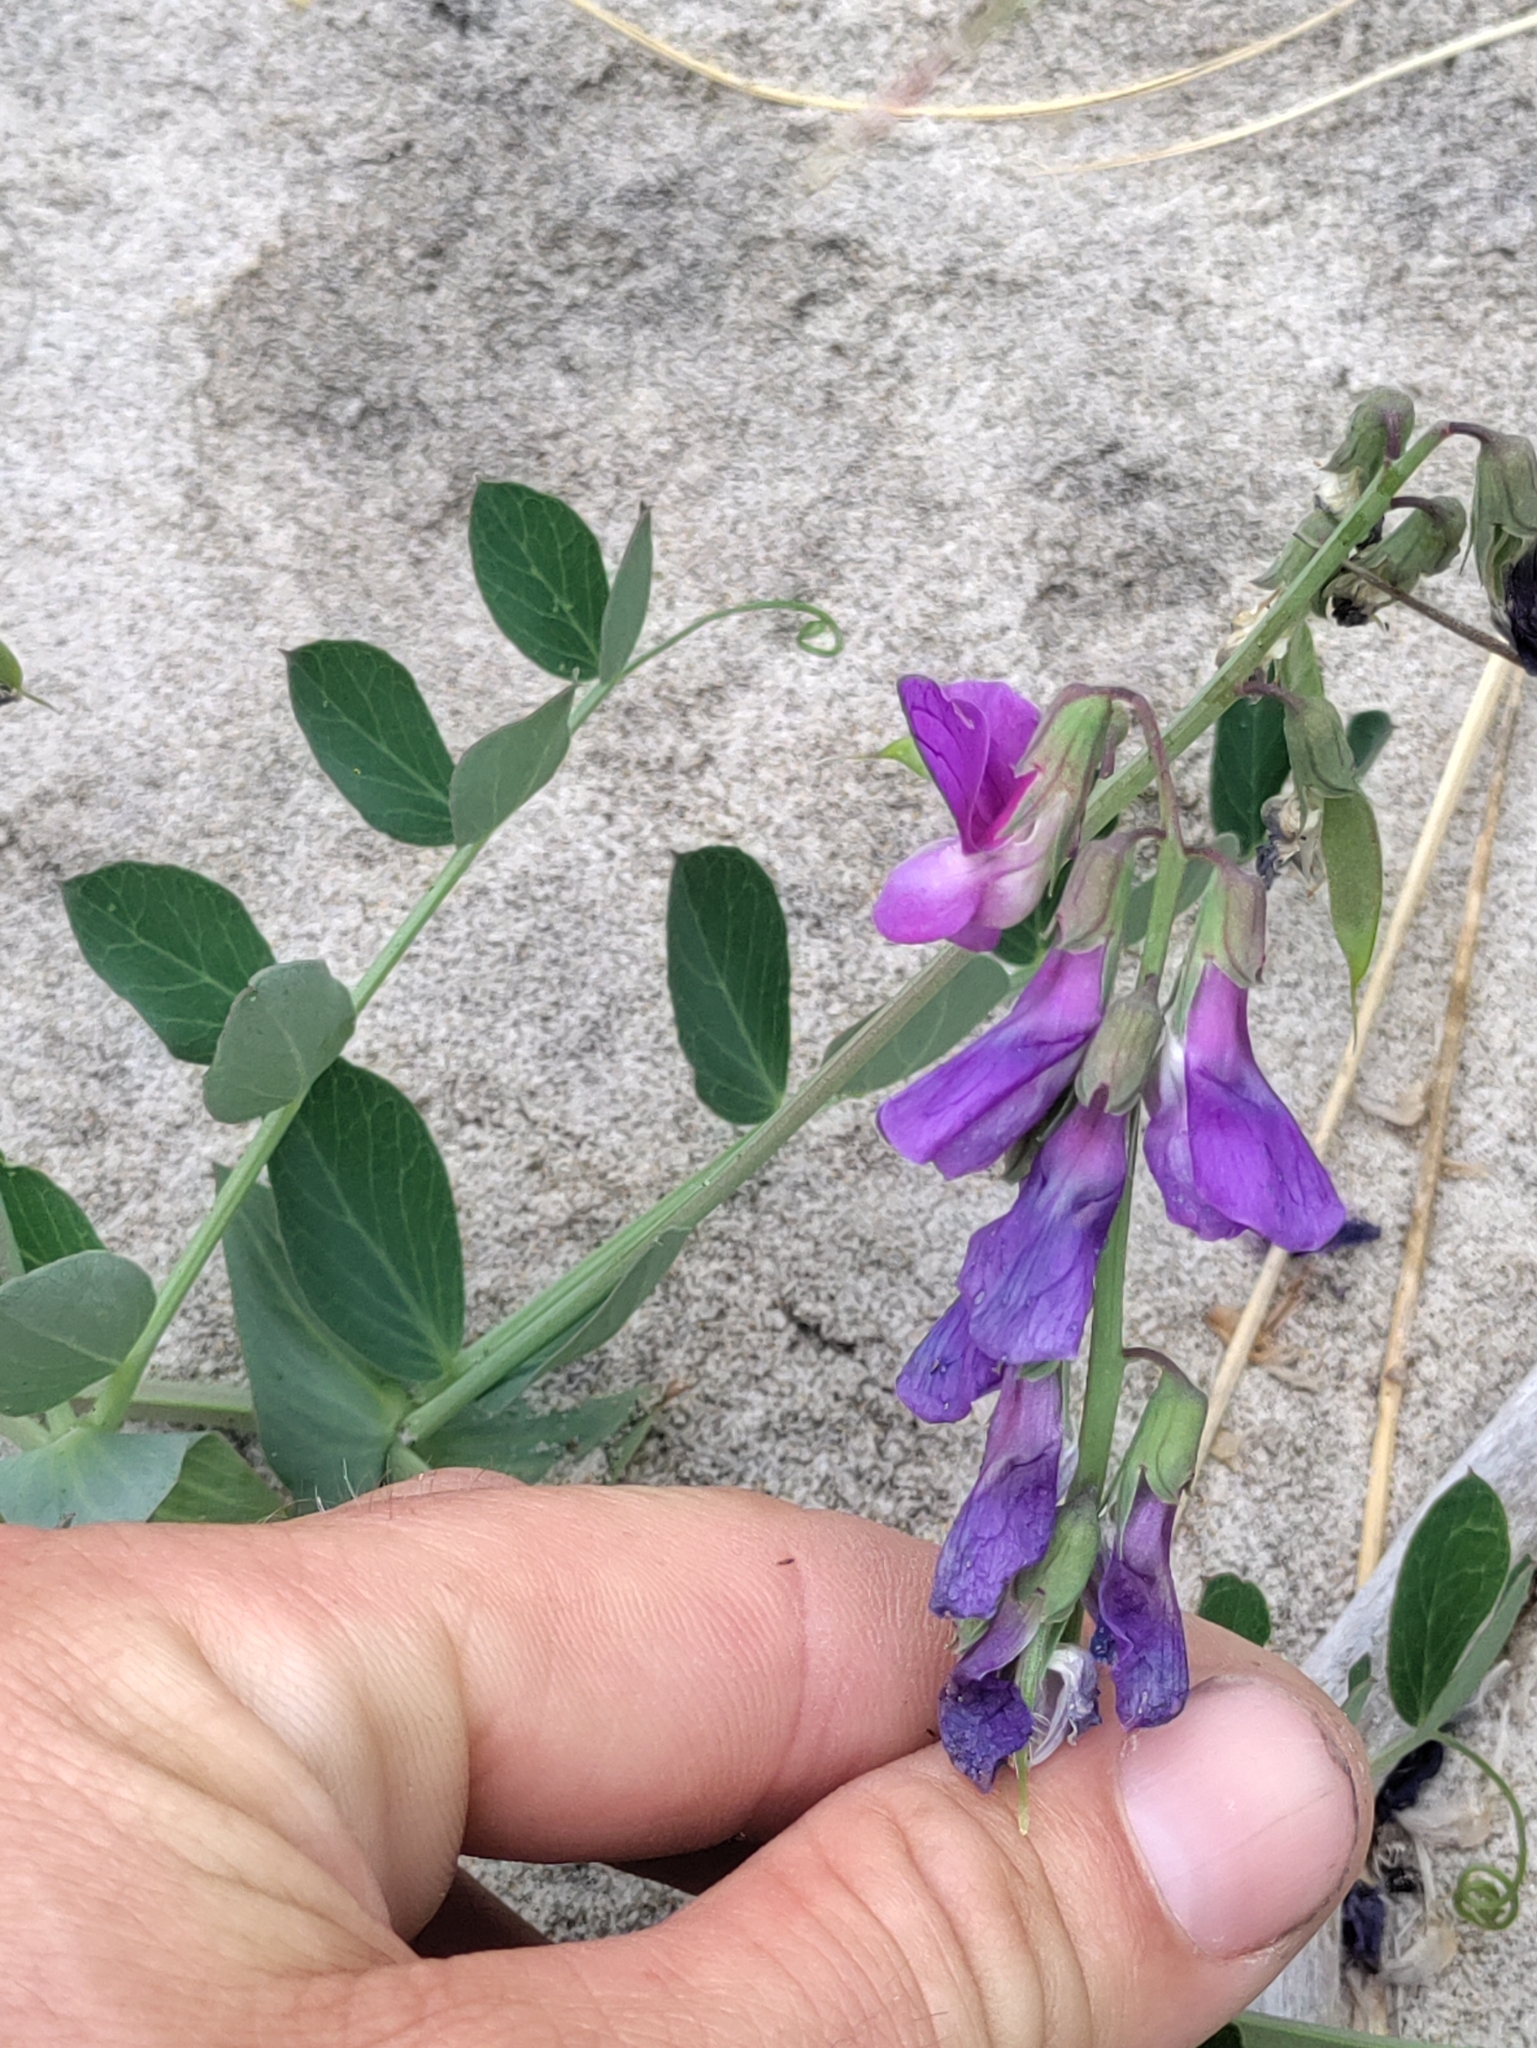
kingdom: Plantae
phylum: Tracheophyta
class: Magnoliopsida
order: Fabales
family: Fabaceae
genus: Lathyrus
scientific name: Lathyrus japonicus
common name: Sea pea
